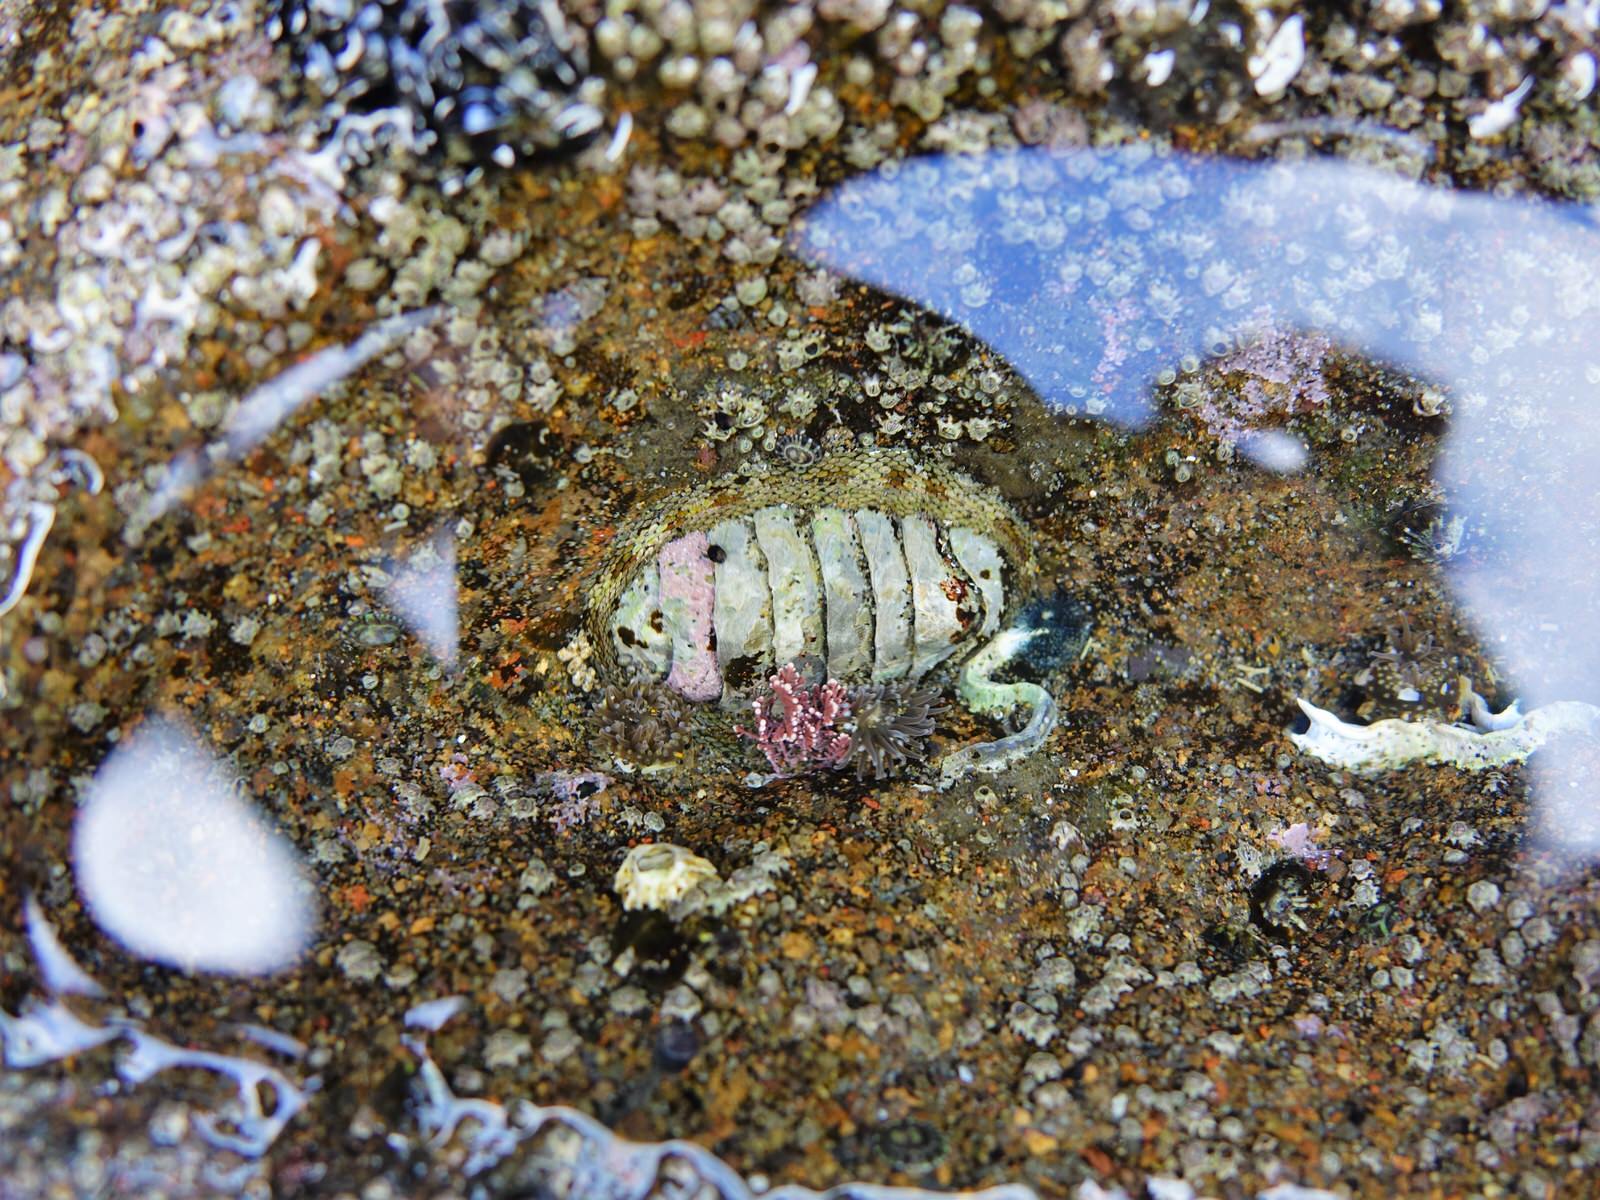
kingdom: Animalia
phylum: Mollusca
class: Polyplacophora
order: Chitonida
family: Chitonidae
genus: Sypharochiton
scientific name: Sypharochiton pelliserpentis
